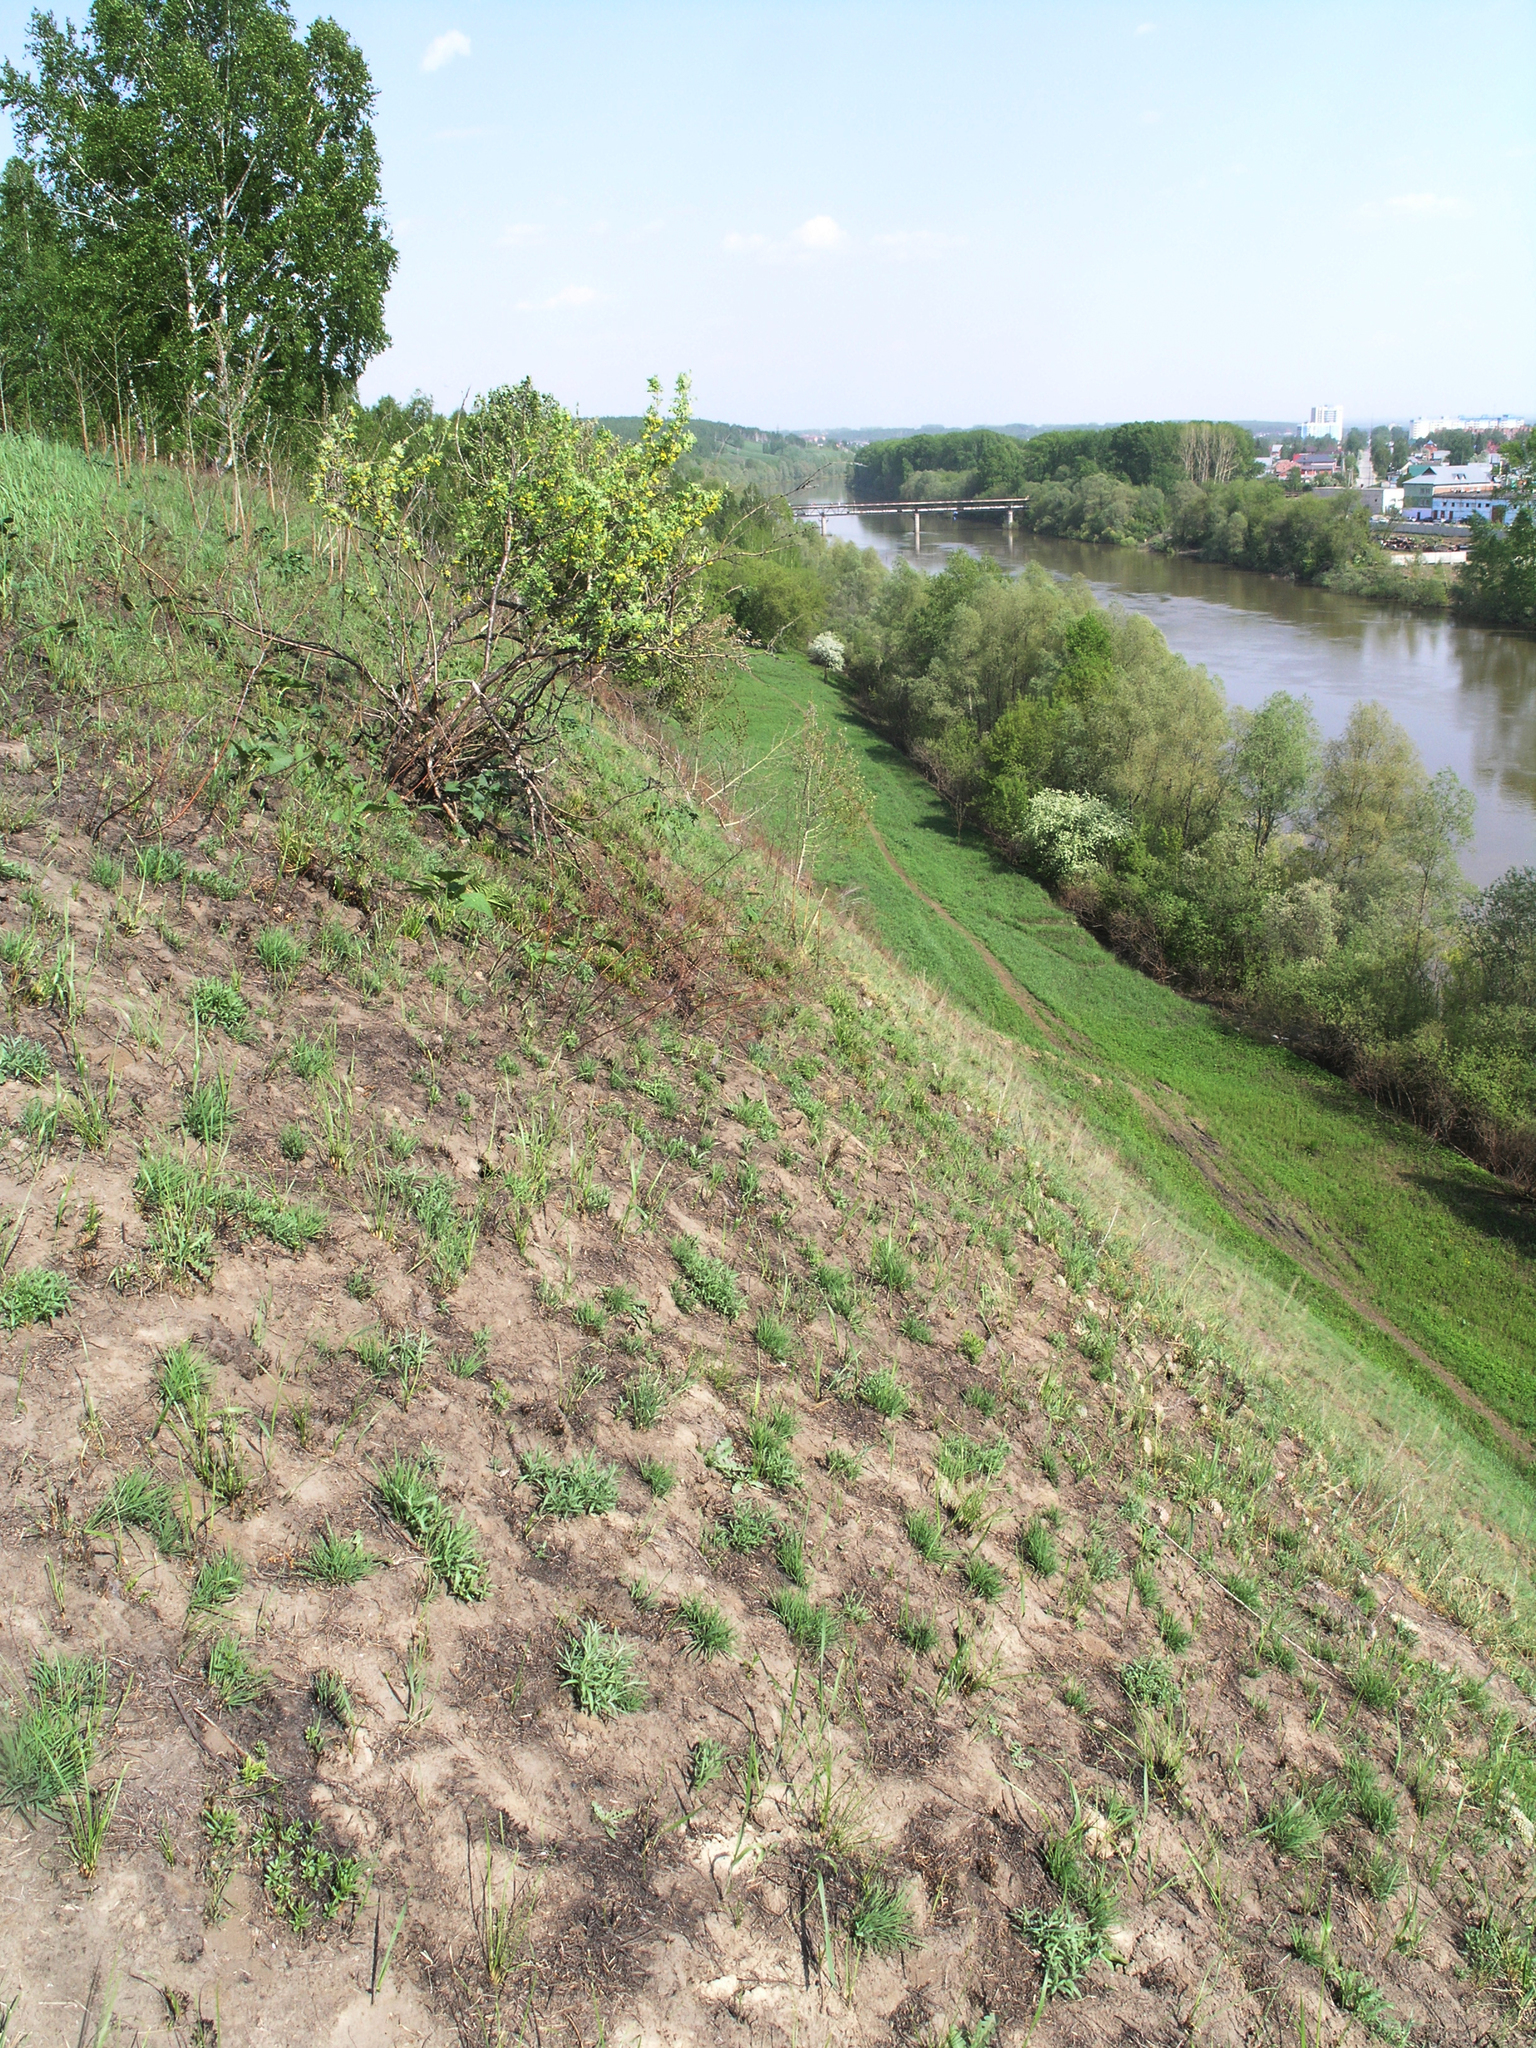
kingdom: Plantae
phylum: Tracheophyta
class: Magnoliopsida
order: Rosales
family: Rosaceae
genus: Spiraea
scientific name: Spiraea hypericifolia
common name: Iberian spirea
